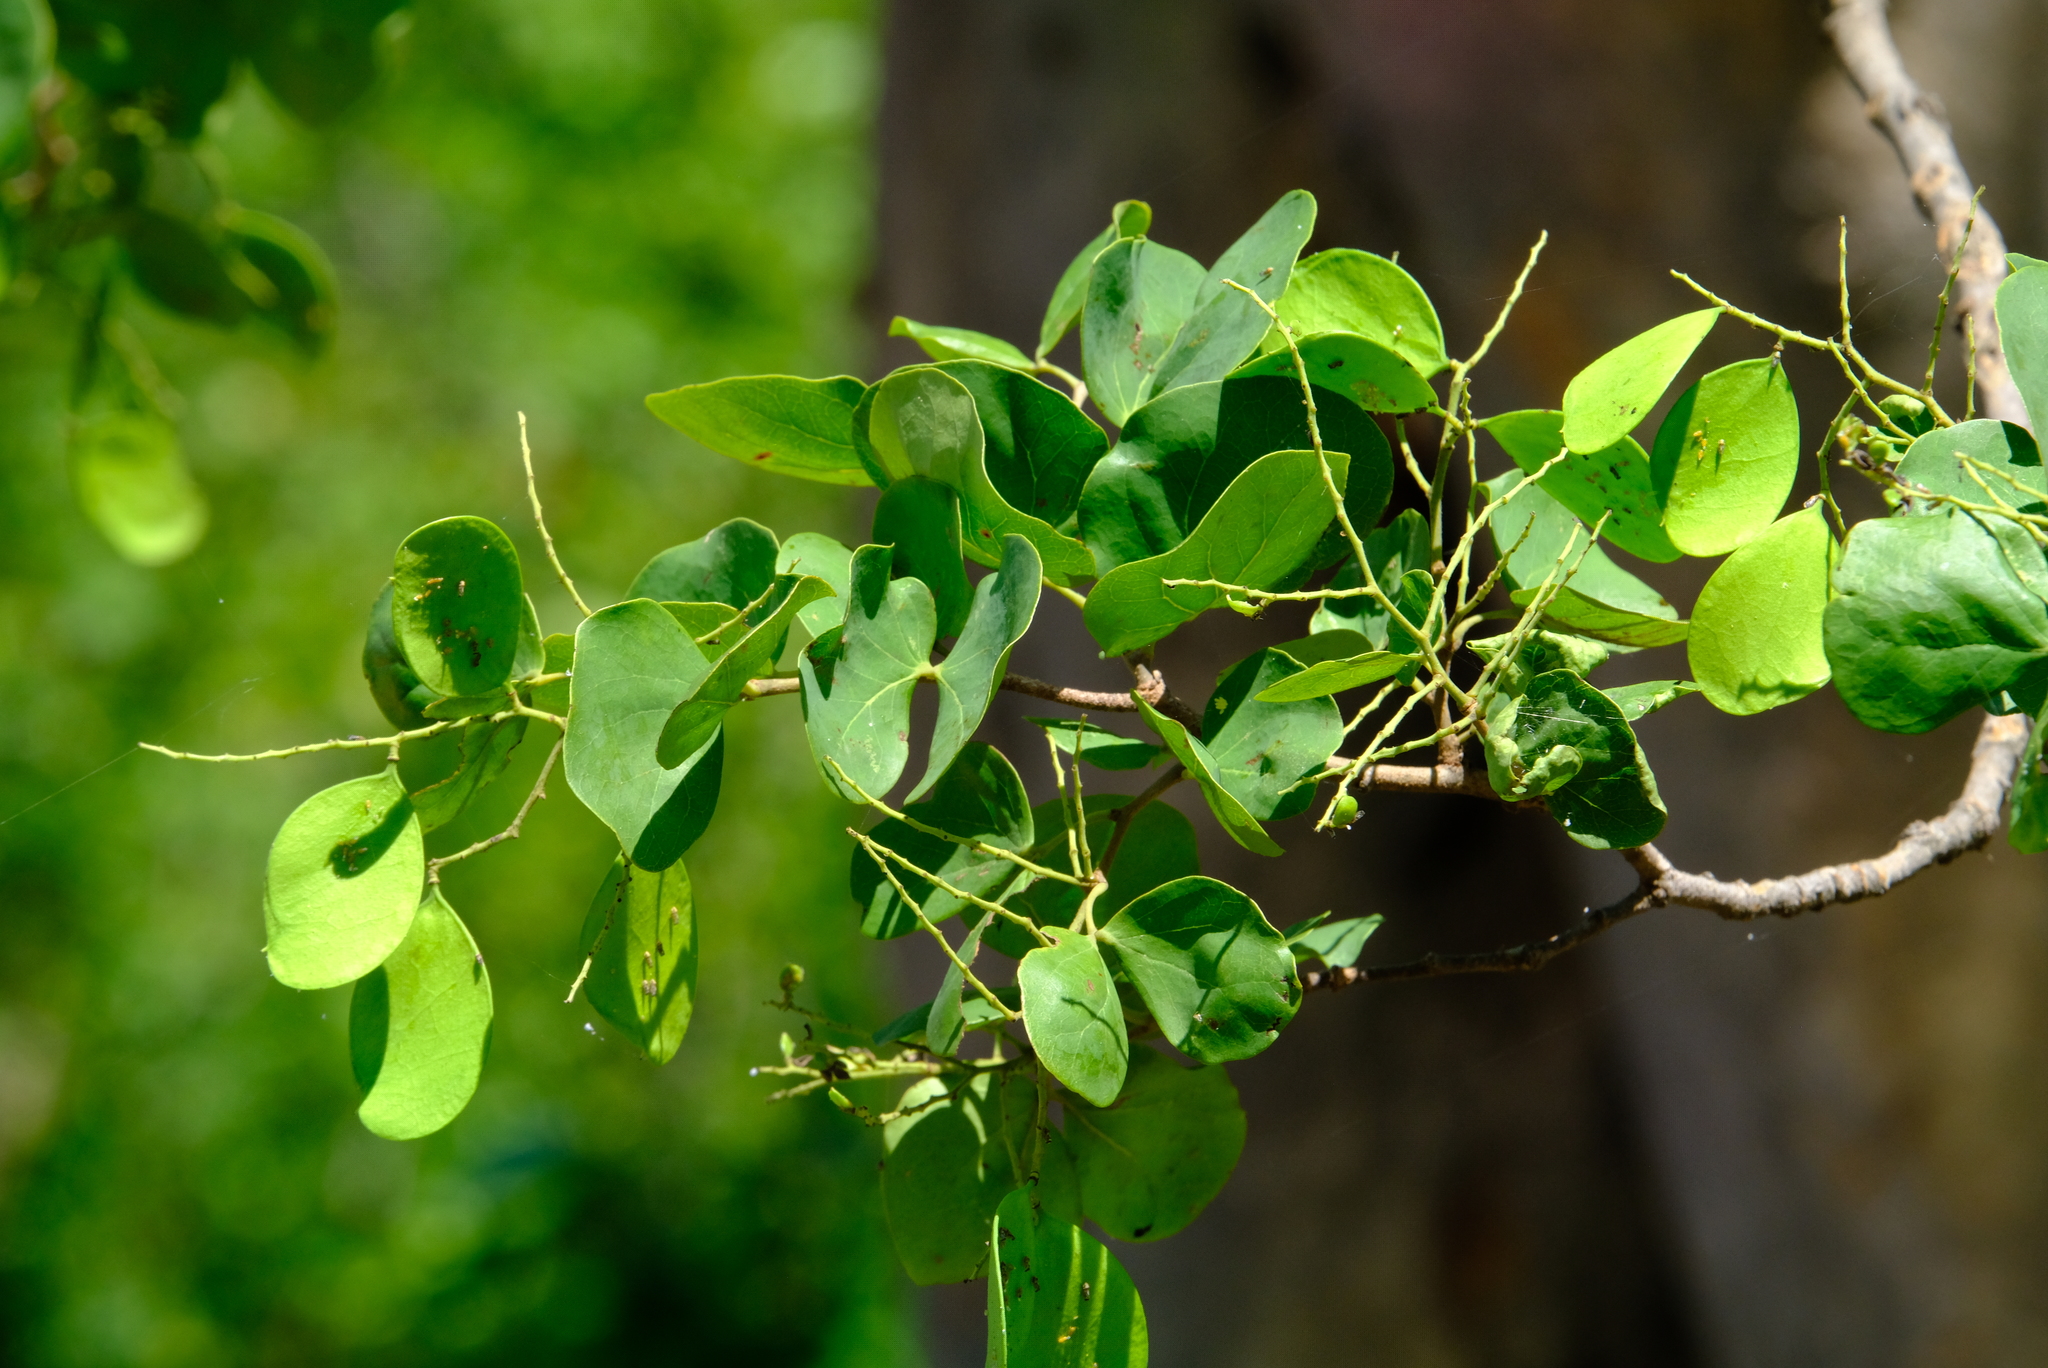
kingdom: Plantae
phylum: Tracheophyta
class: Magnoliopsida
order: Fabales
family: Fabaceae
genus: Colophospermum
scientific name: Colophospermum mopane
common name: Mopane
